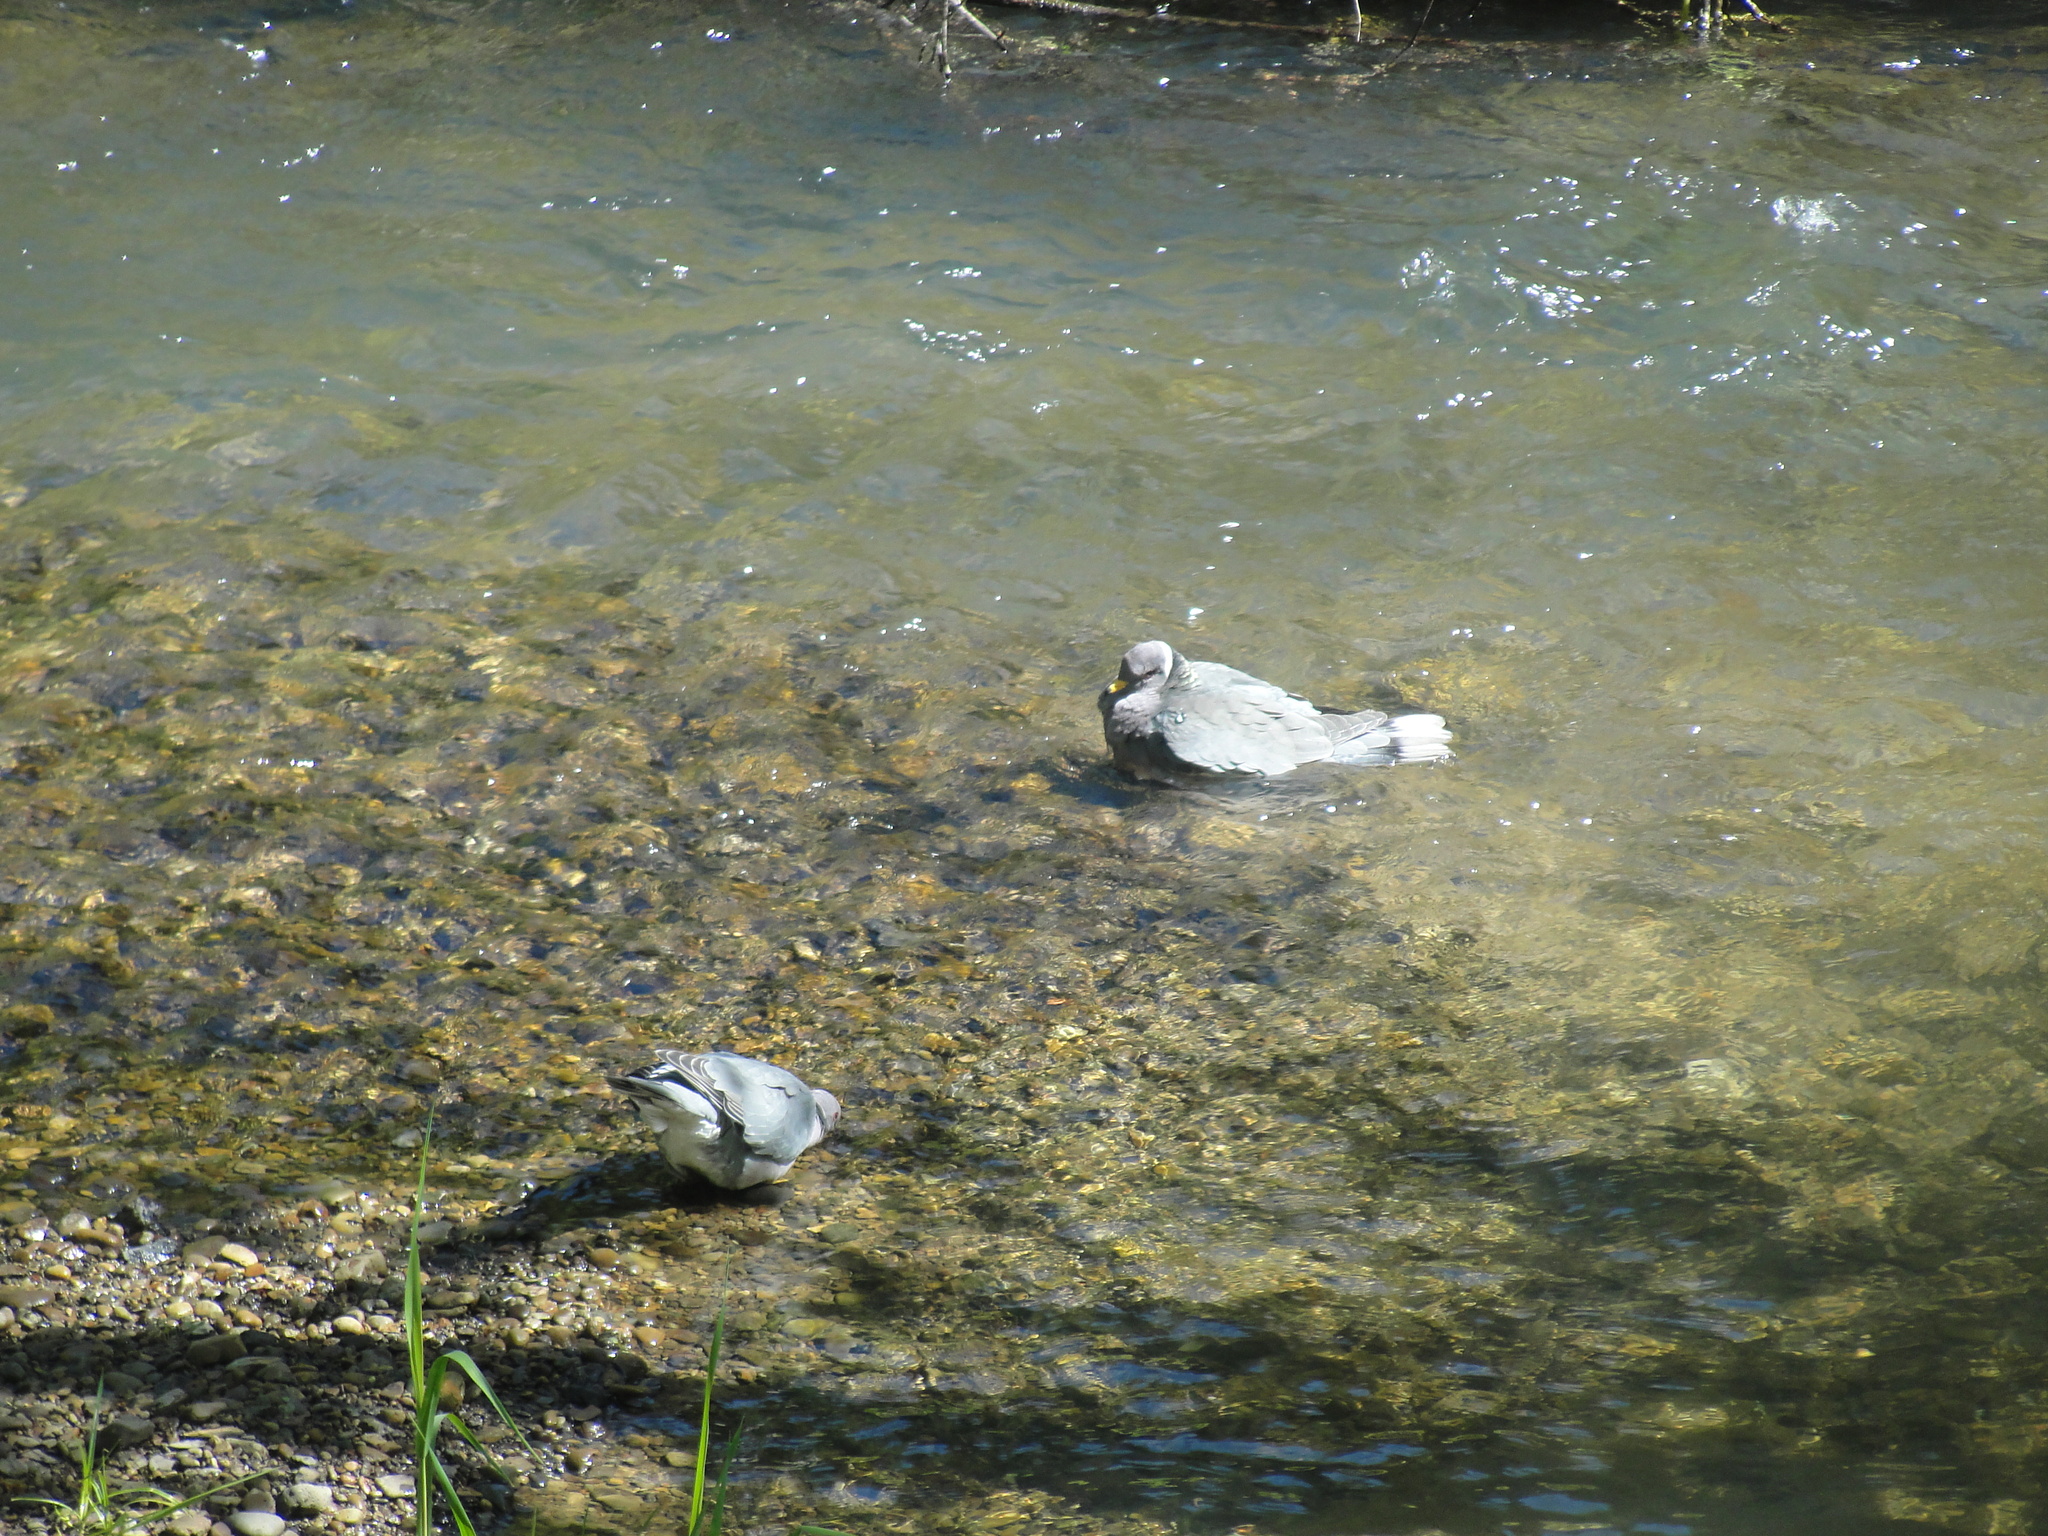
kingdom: Animalia
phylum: Chordata
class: Aves
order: Columbiformes
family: Columbidae
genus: Patagioenas
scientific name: Patagioenas fasciata
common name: Band-tailed pigeon
